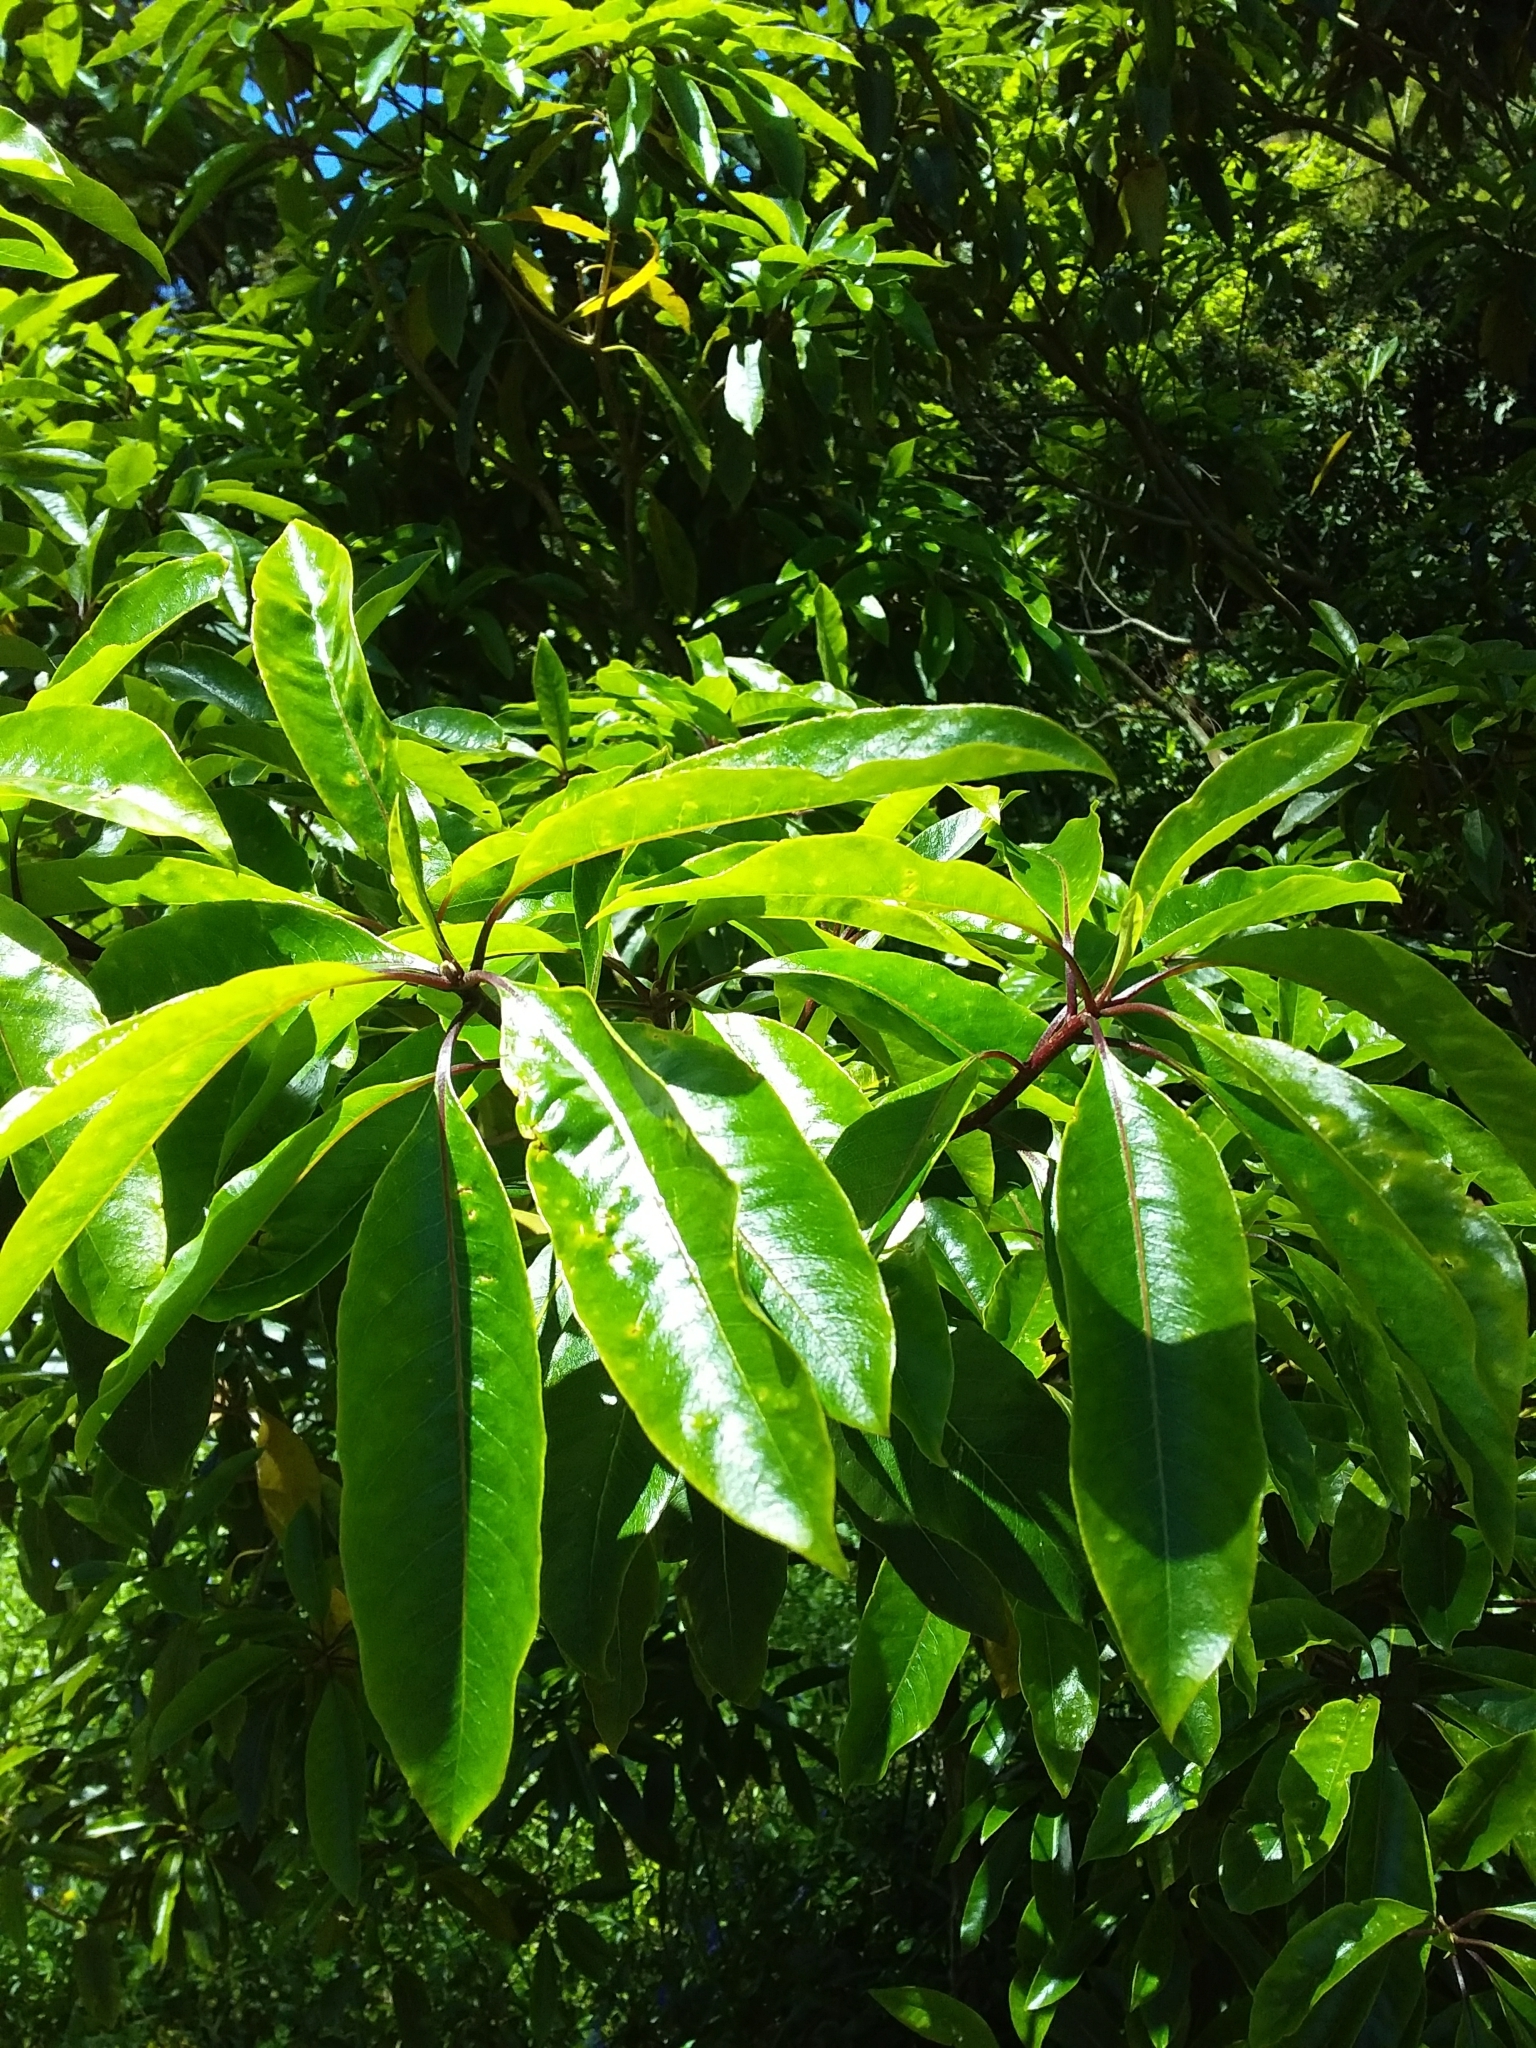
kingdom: Plantae
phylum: Tracheophyta
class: Magnoliopsida
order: Apiales
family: Pittosporaceae
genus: Pittosporum
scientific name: Pittosporum undulatum
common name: Australian cheesewood
